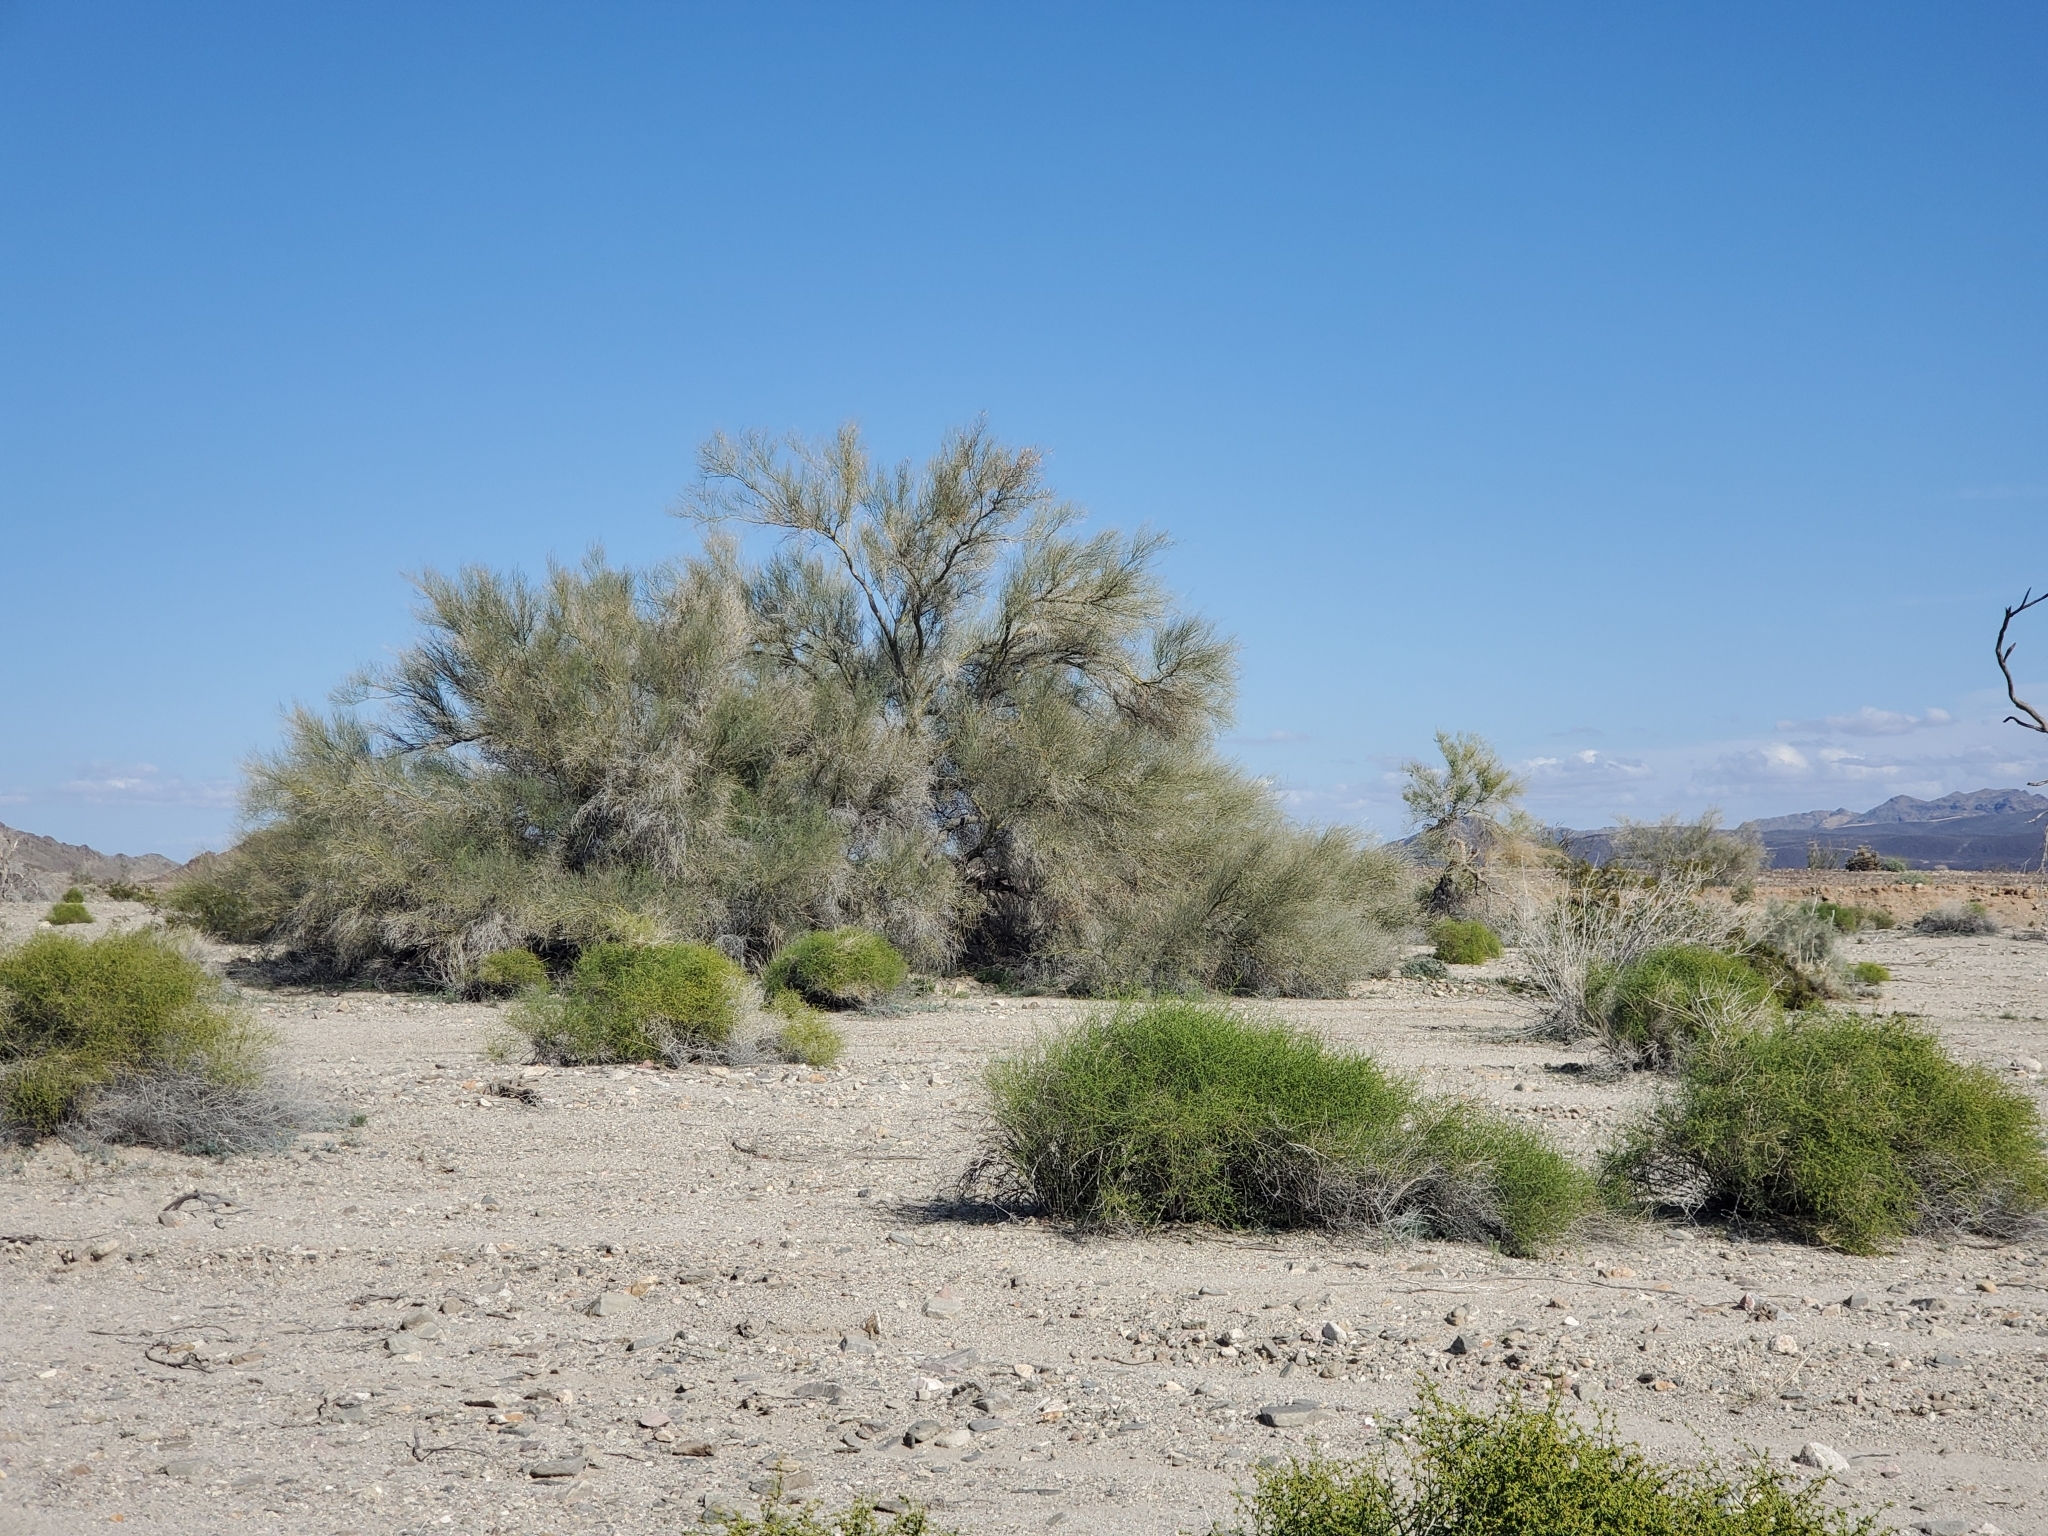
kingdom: Plantae
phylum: Tracheophyta
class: Magnoliopsida
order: Fabales
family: Fabaceae
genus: Parkinsonia
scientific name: Parkinsonia florida
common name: Blue paloverde
